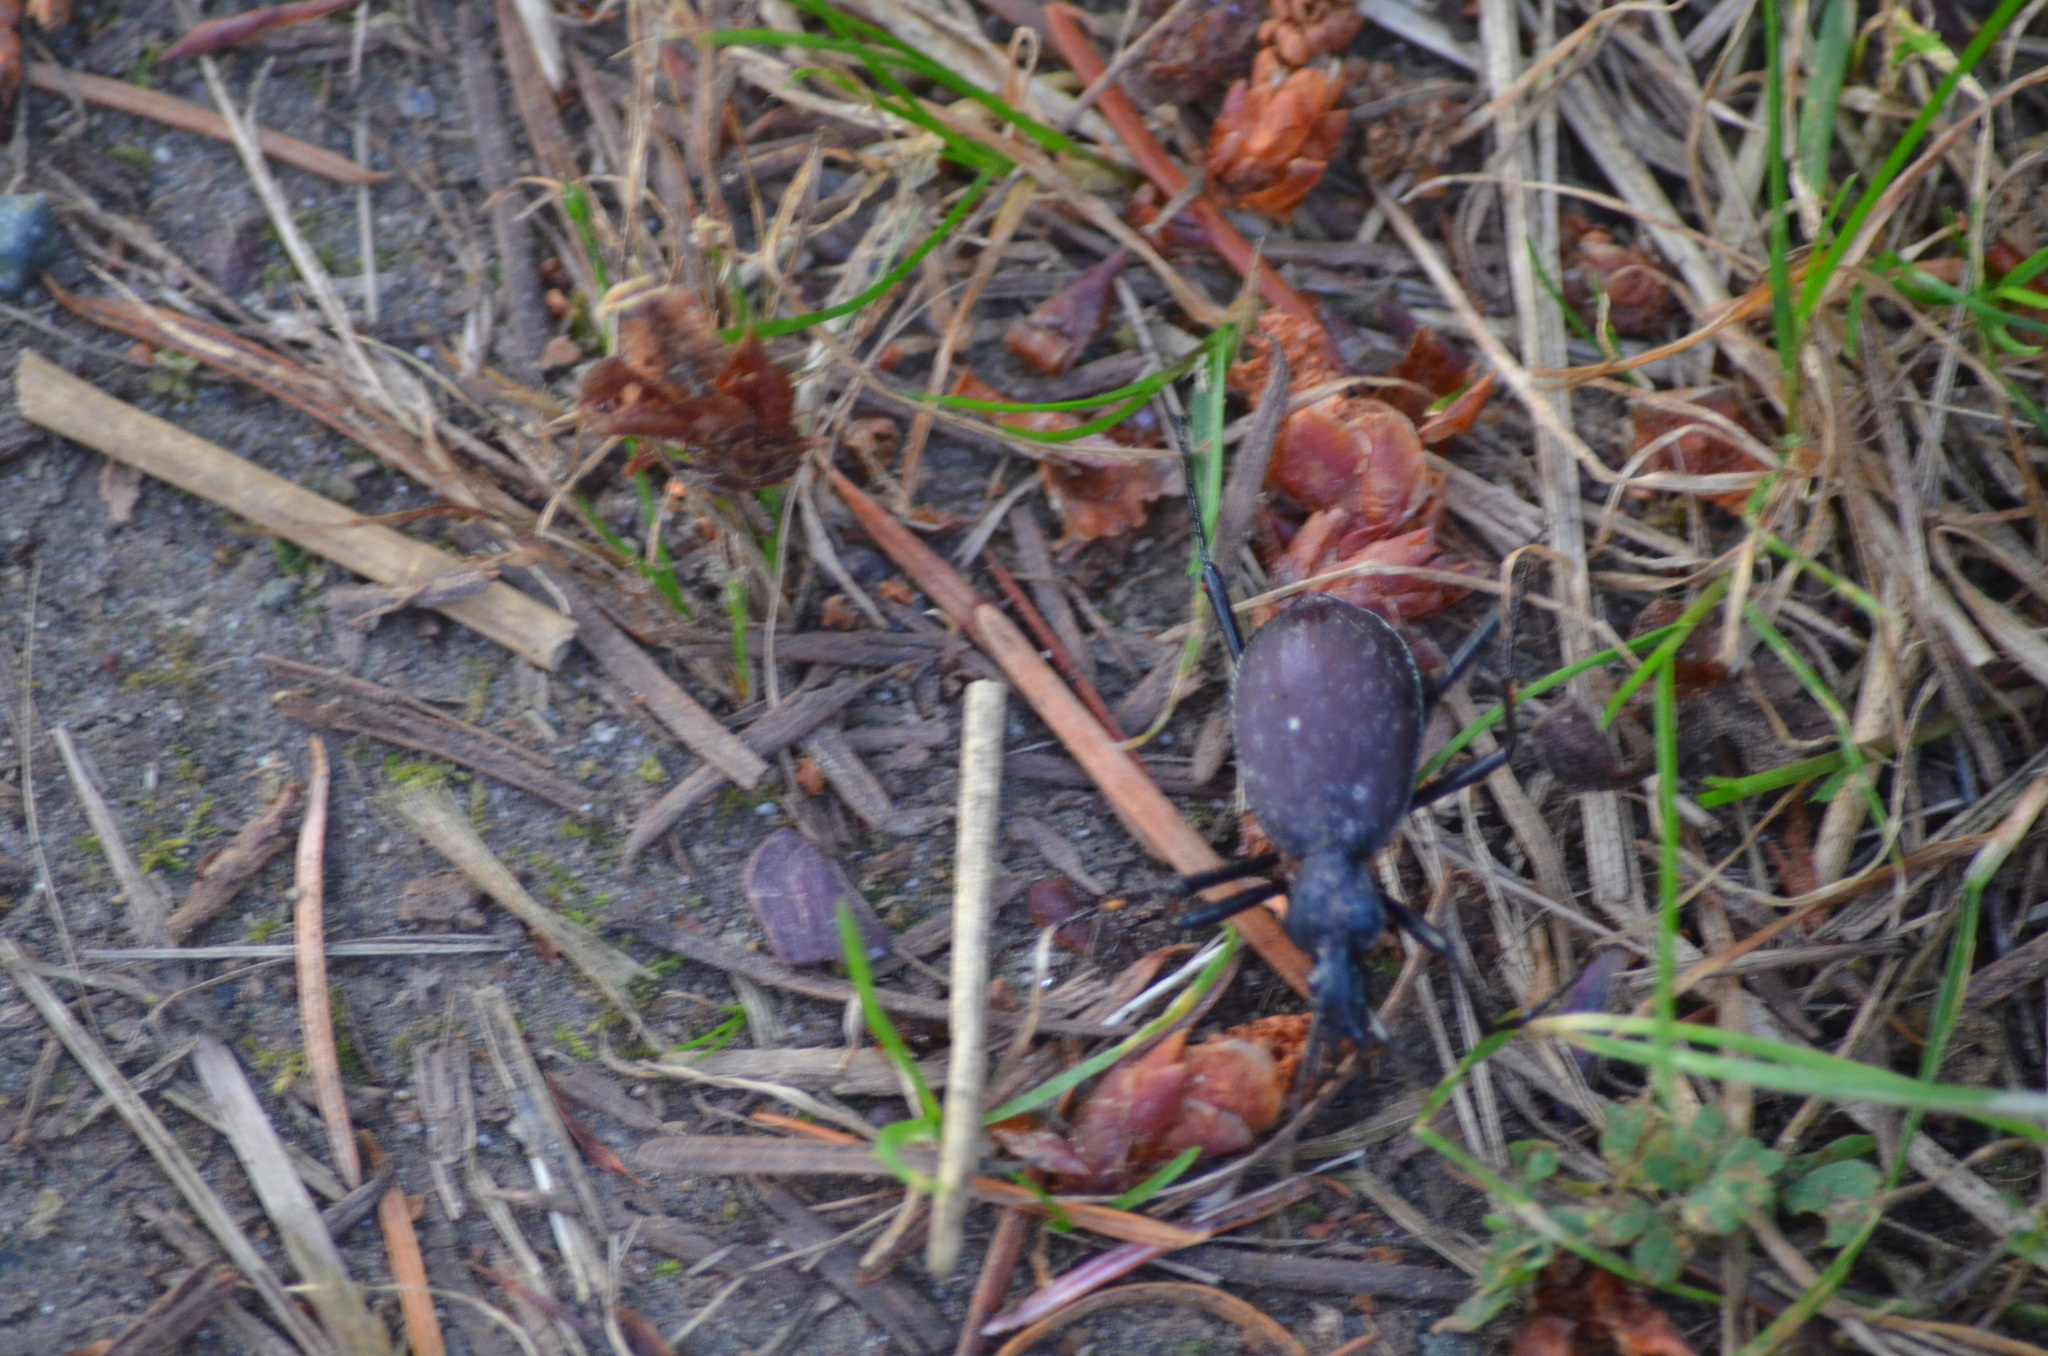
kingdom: Animalia
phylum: Arthropoda
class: Insecta
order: Coleoptera
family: Carabidae
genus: Scaphinotus
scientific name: Scaphinotus angusticollis
